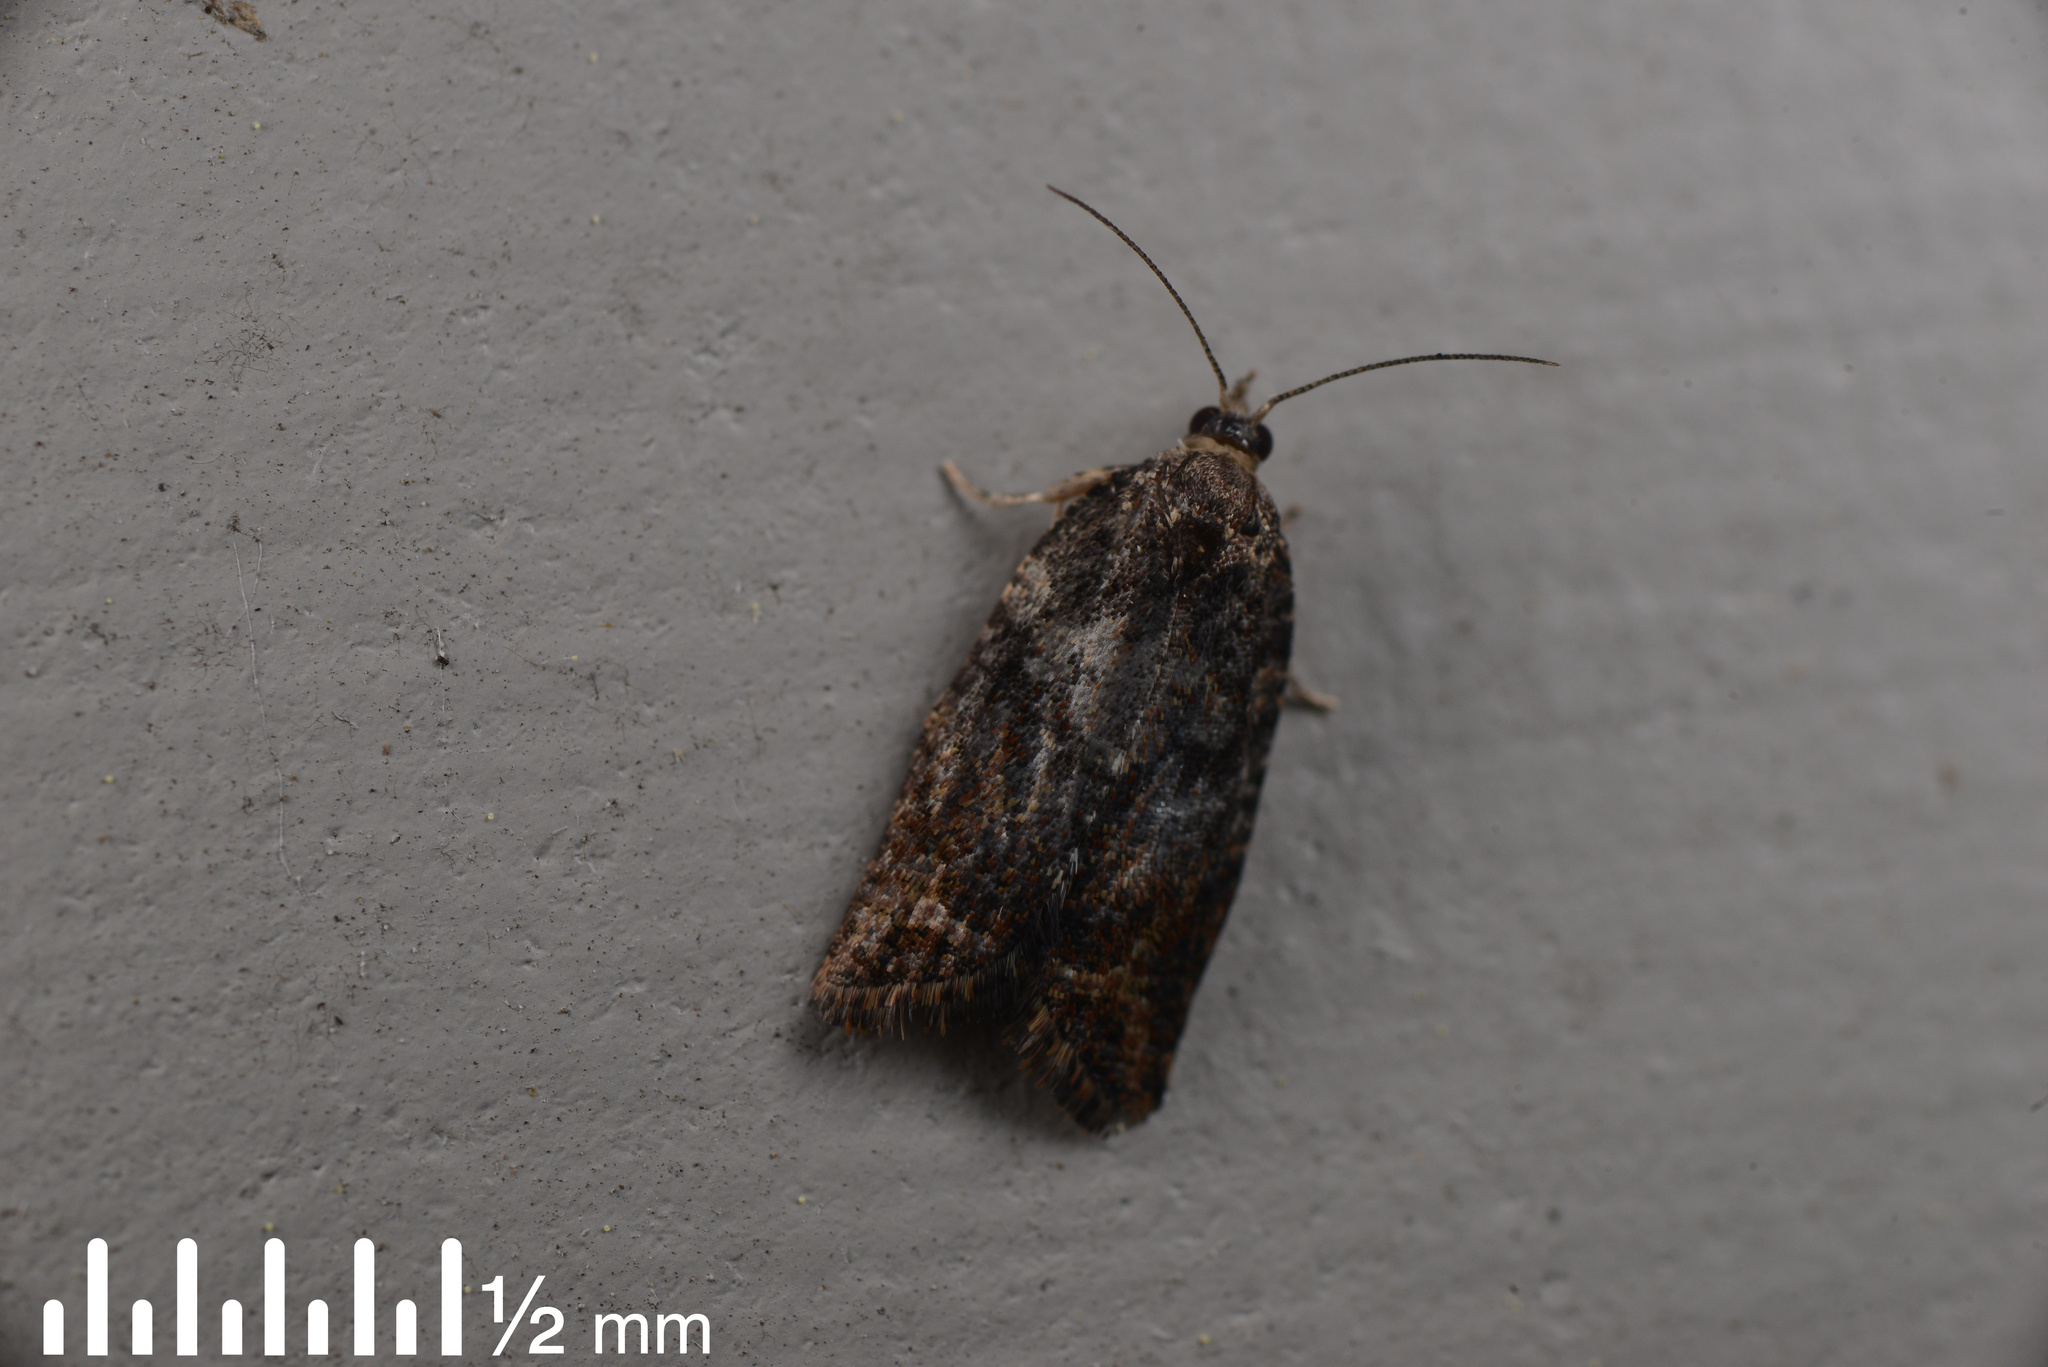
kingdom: Animalia
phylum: Arthropoda
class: Insecta
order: Lepidoptera
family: Tortricidae
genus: Capua
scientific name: Capua intractana
